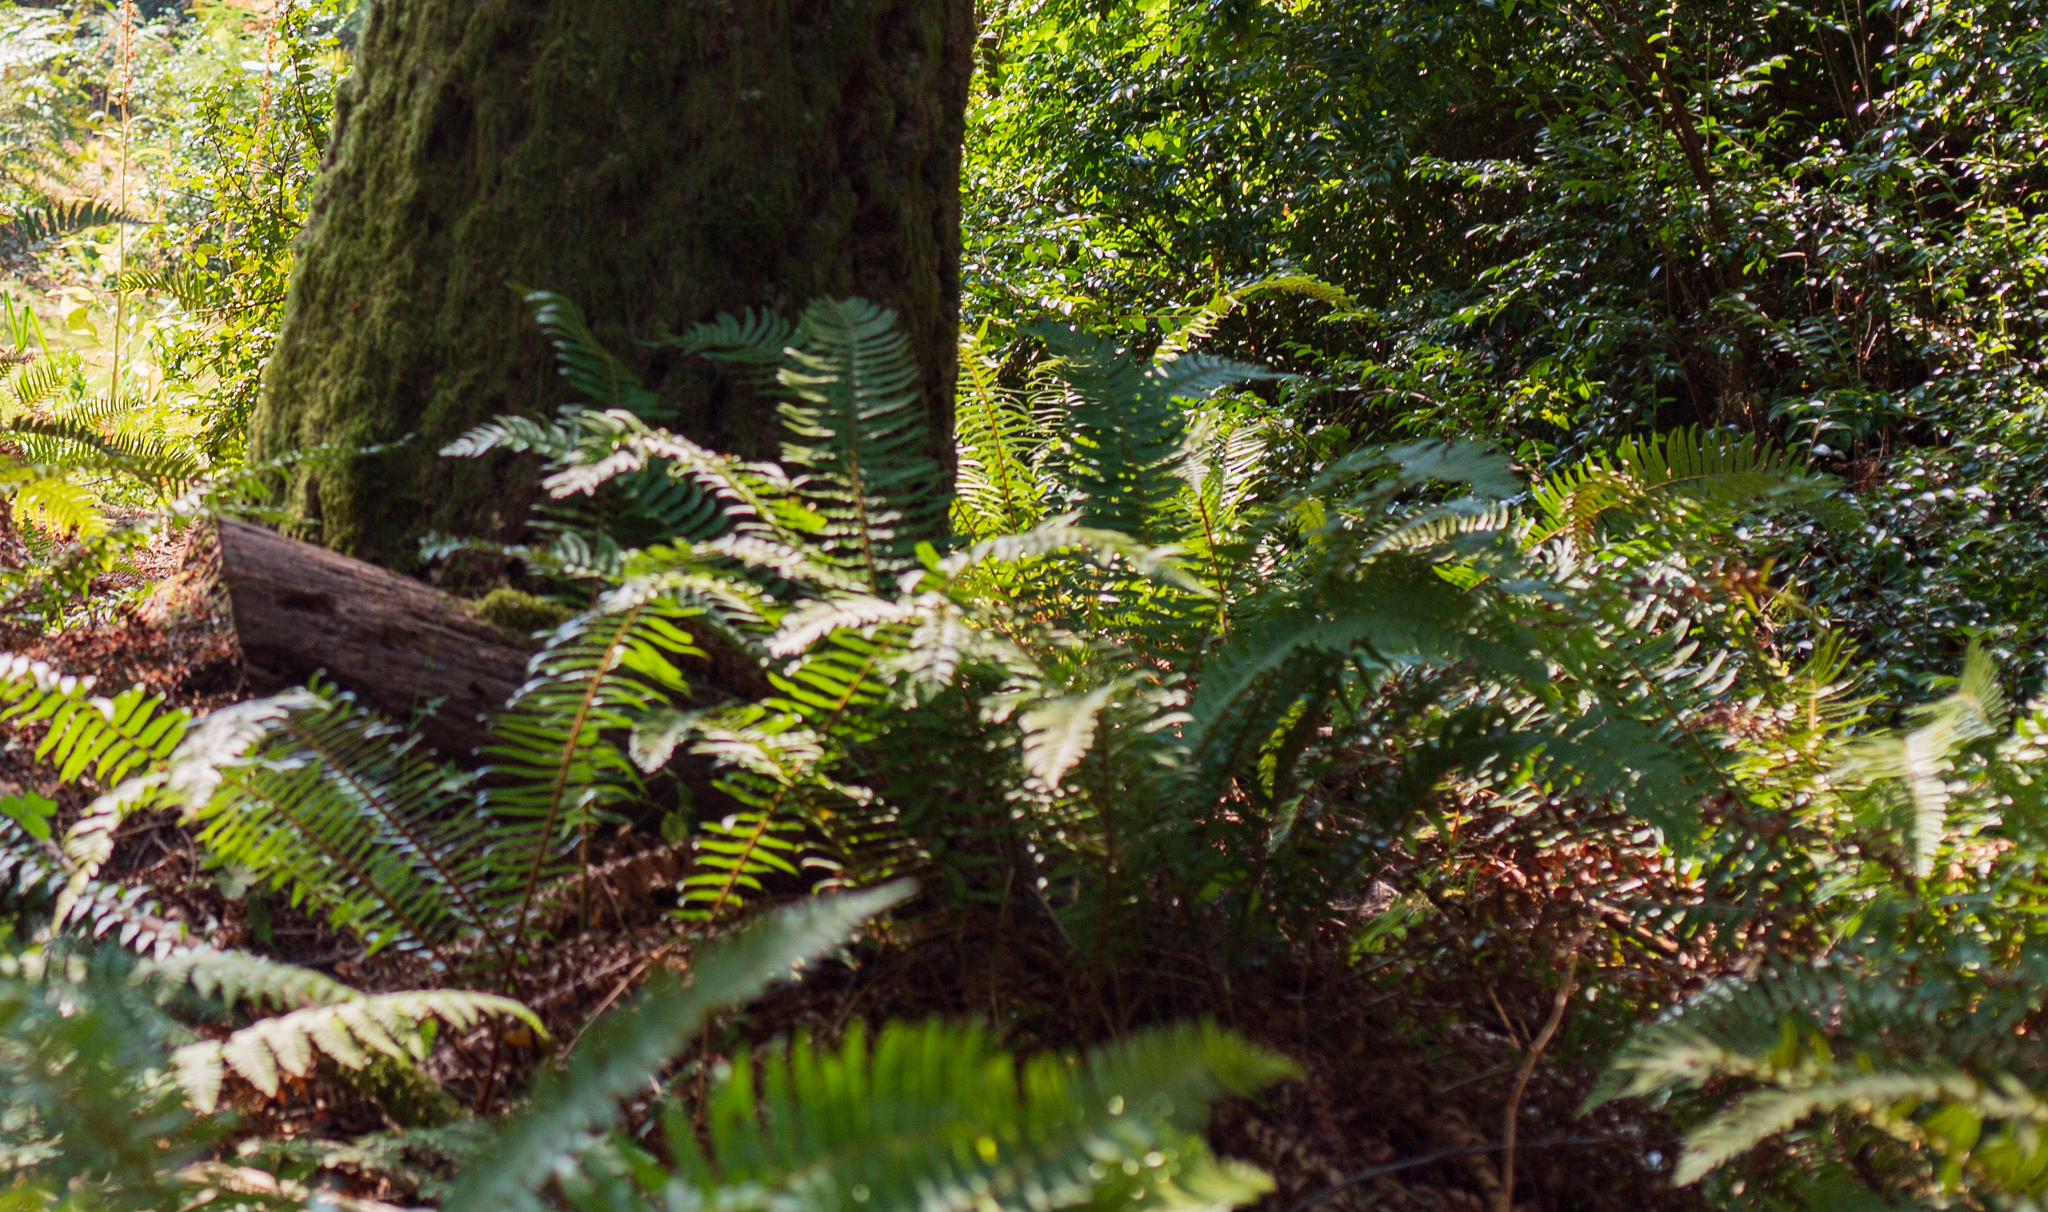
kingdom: Plantae
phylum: Tracheophyta
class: Polypodiopsida
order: Polypodiales
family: Dryopteridaceae
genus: Polystichum
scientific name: Polystichum munitum
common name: Western sword-fern
